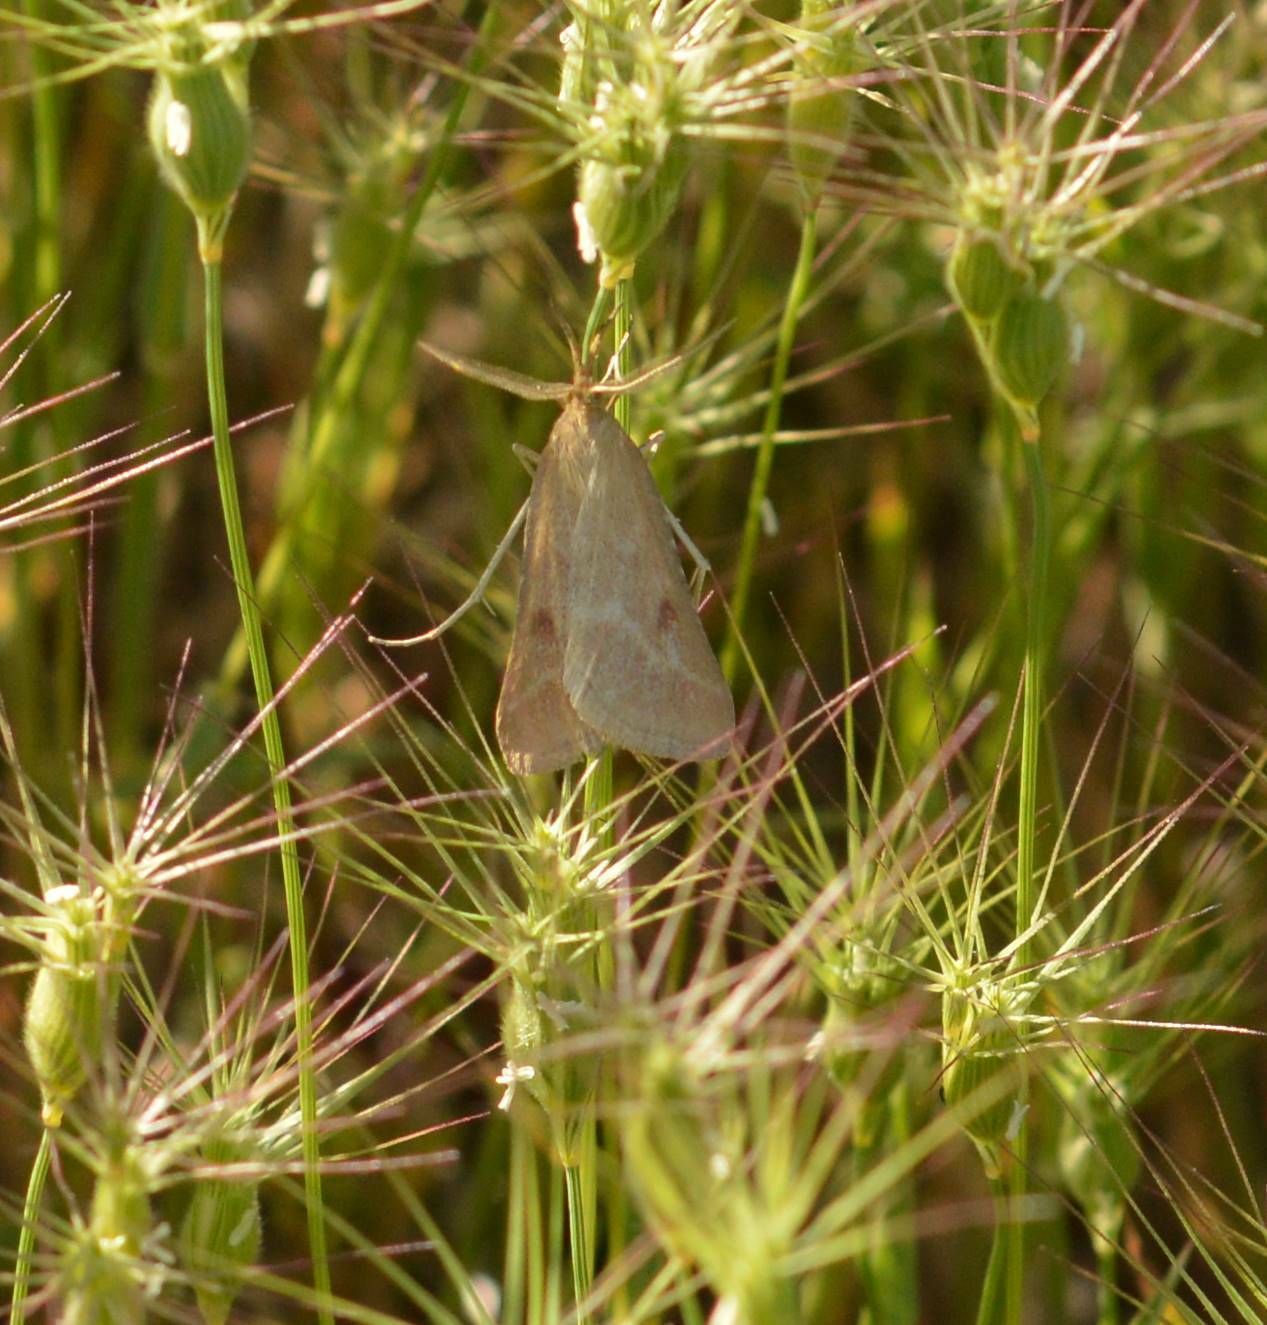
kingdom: Animalia
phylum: Arthropoda
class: Insecta
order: Lepidoptera
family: Pyralidae
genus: Synaphe
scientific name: Synaphe punctalis
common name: Long-legged tabby
